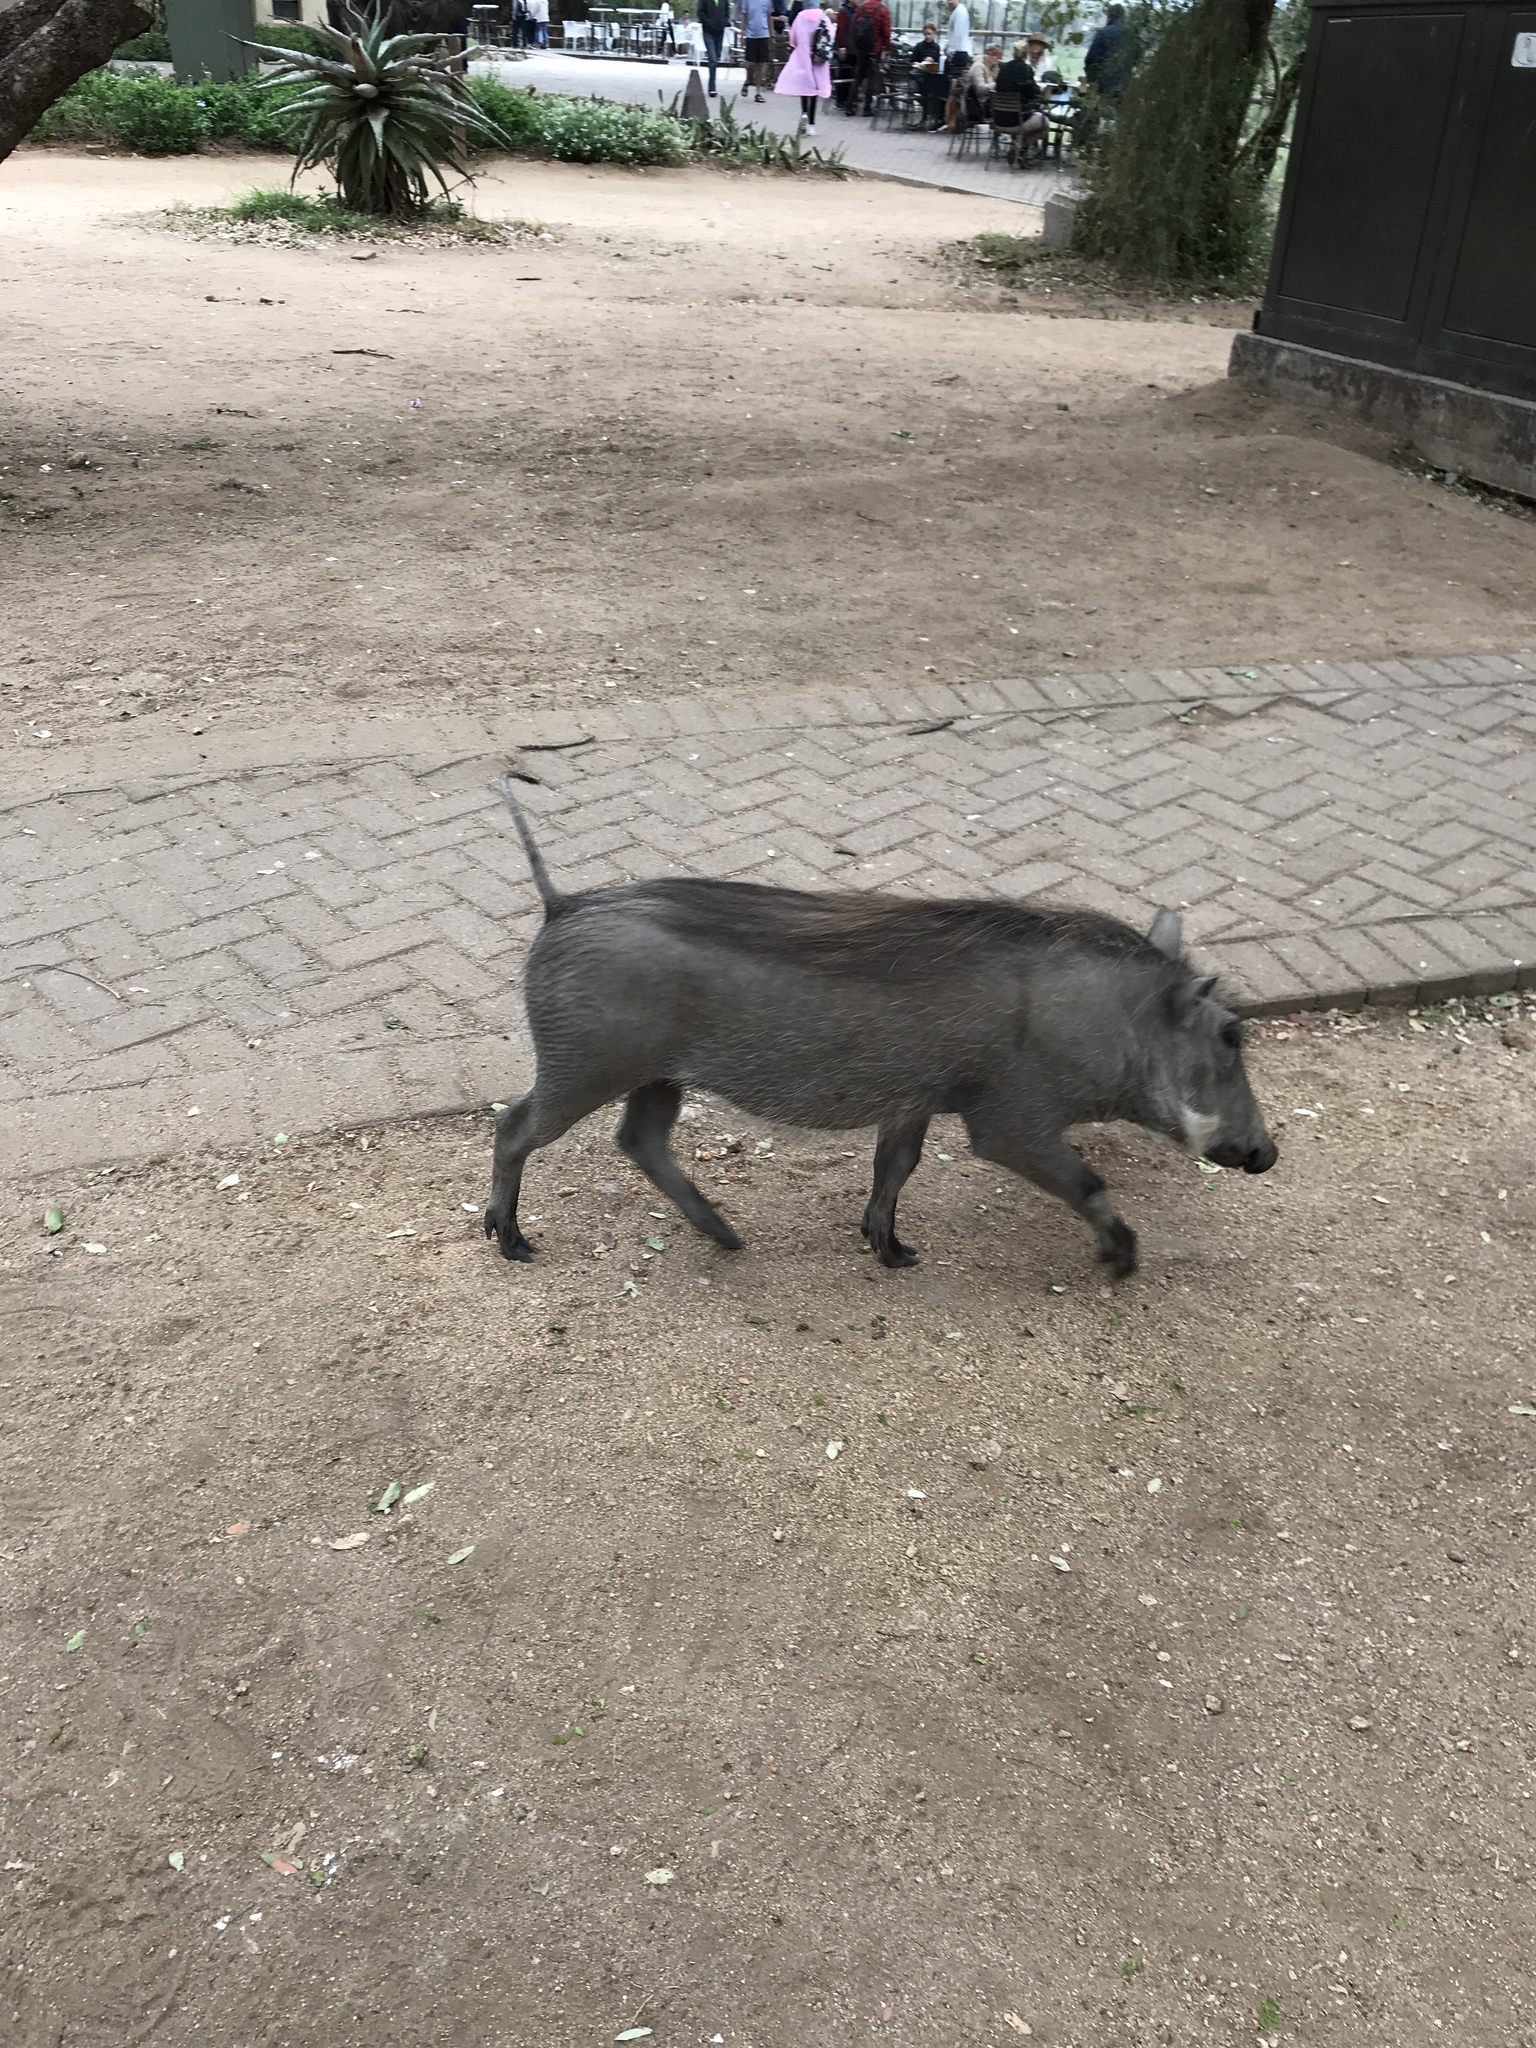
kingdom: Animalia
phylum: Chordata
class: Mammalia
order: Artiodactyla
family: Suidae
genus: Phacochoerus
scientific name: Phacochoerus africanus
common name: Common warthog
